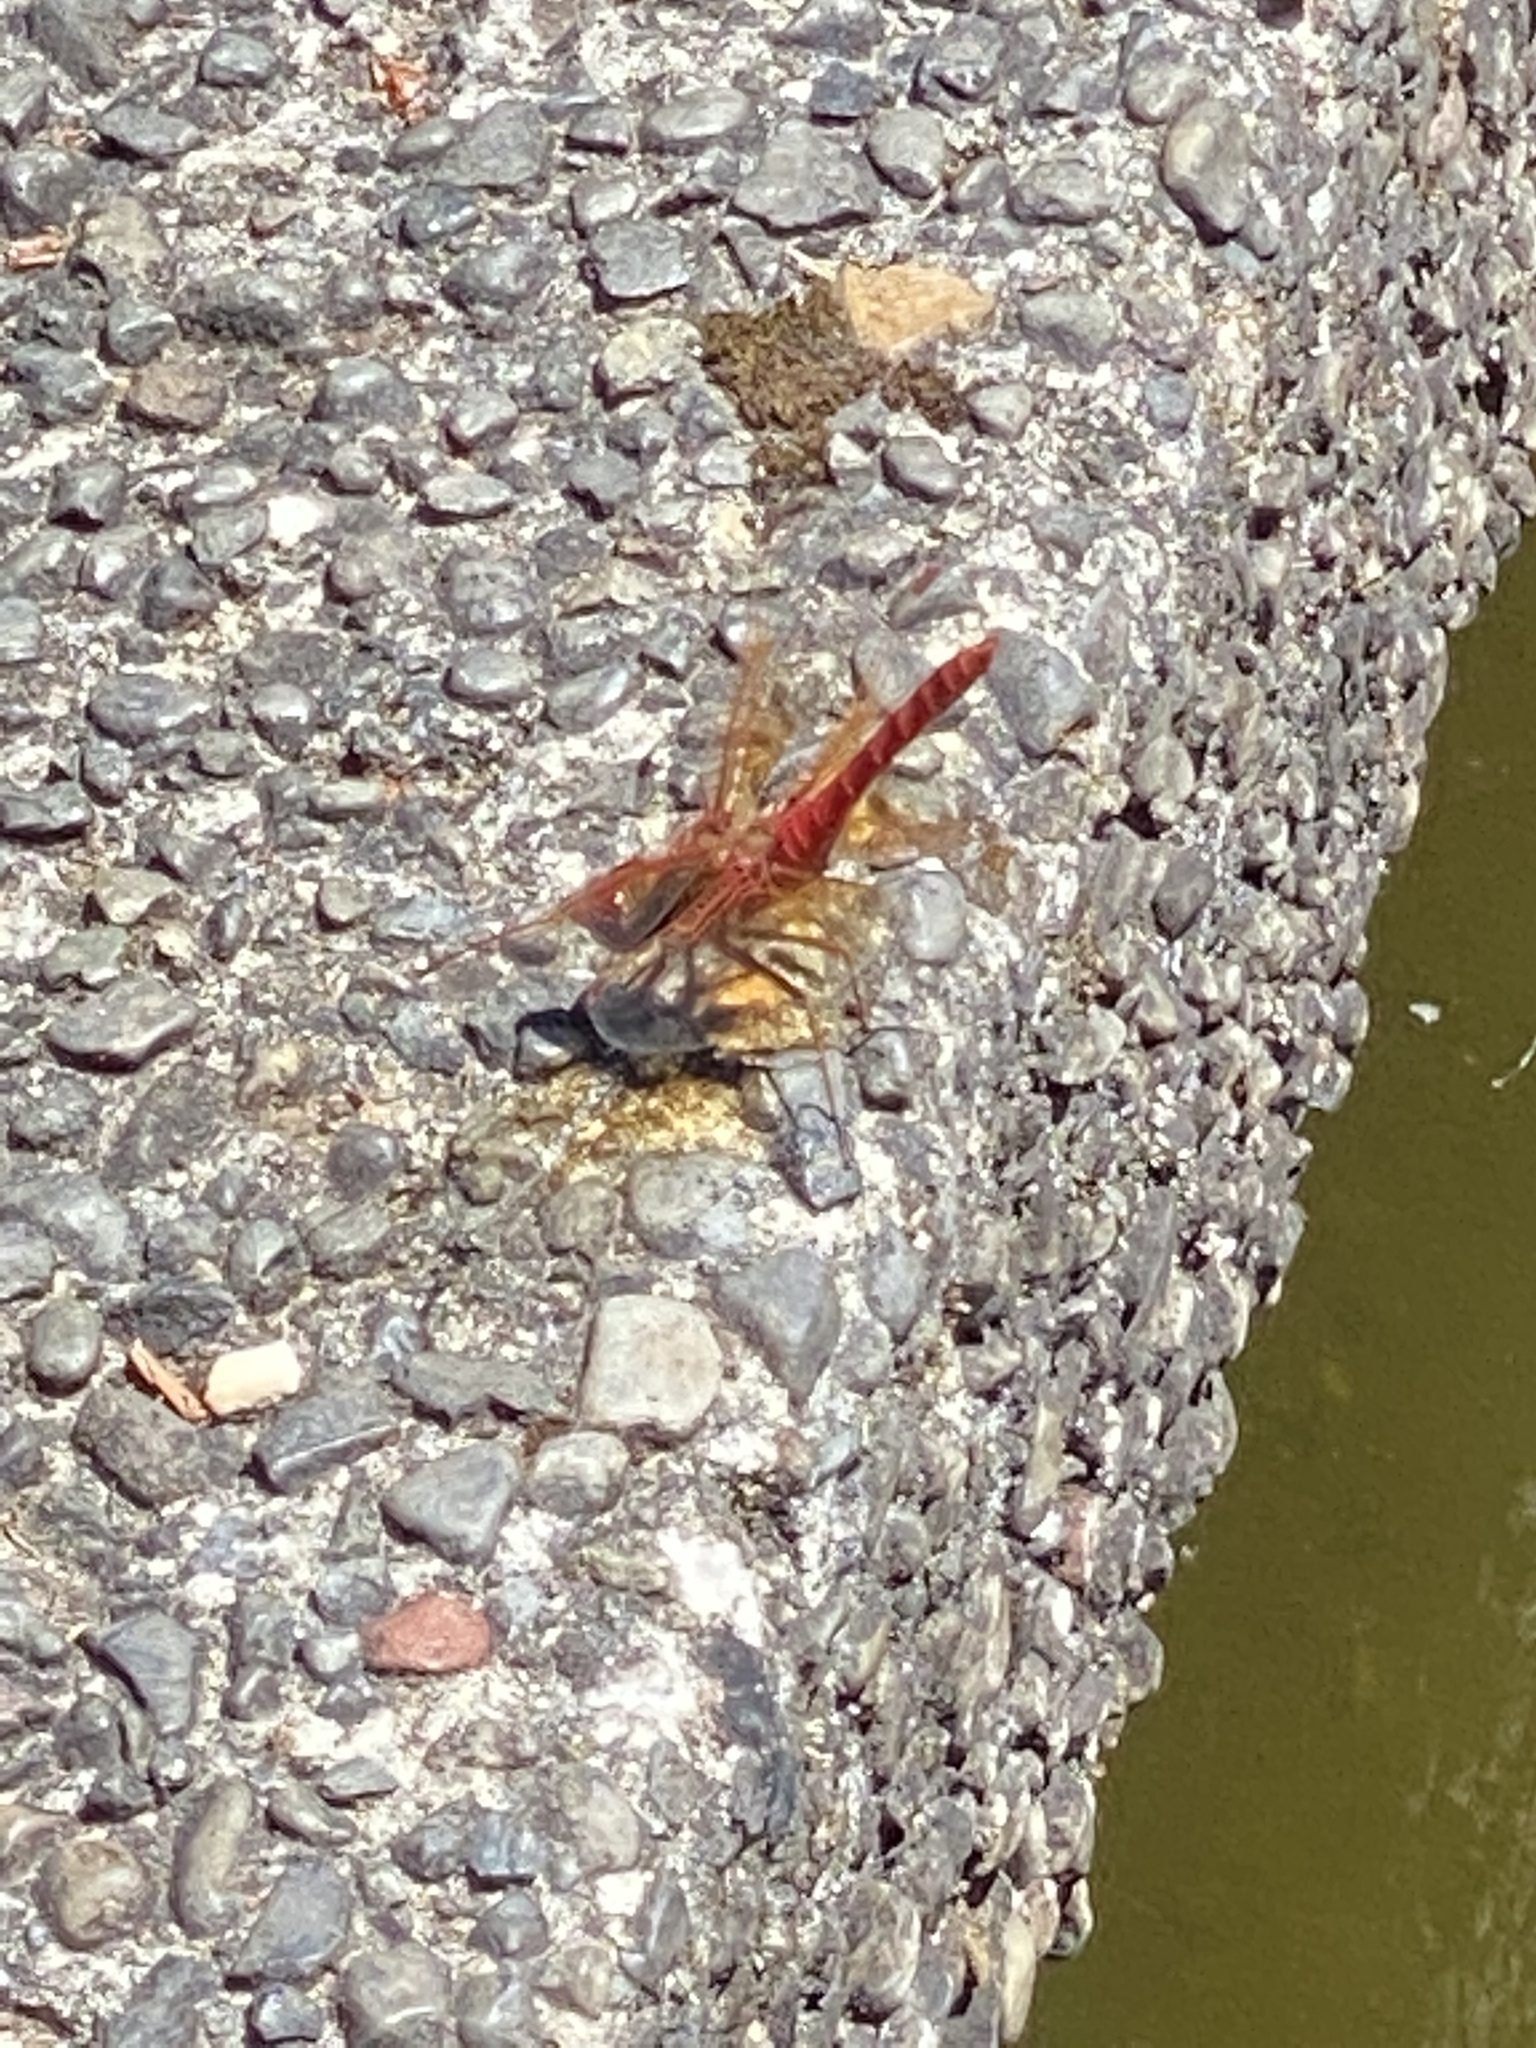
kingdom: Animalia
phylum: Arthropoda
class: Insecta
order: Odonata
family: Libellulidae
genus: Sympetrum
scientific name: Sympetrum illotum
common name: Cardinal meadowhawk
